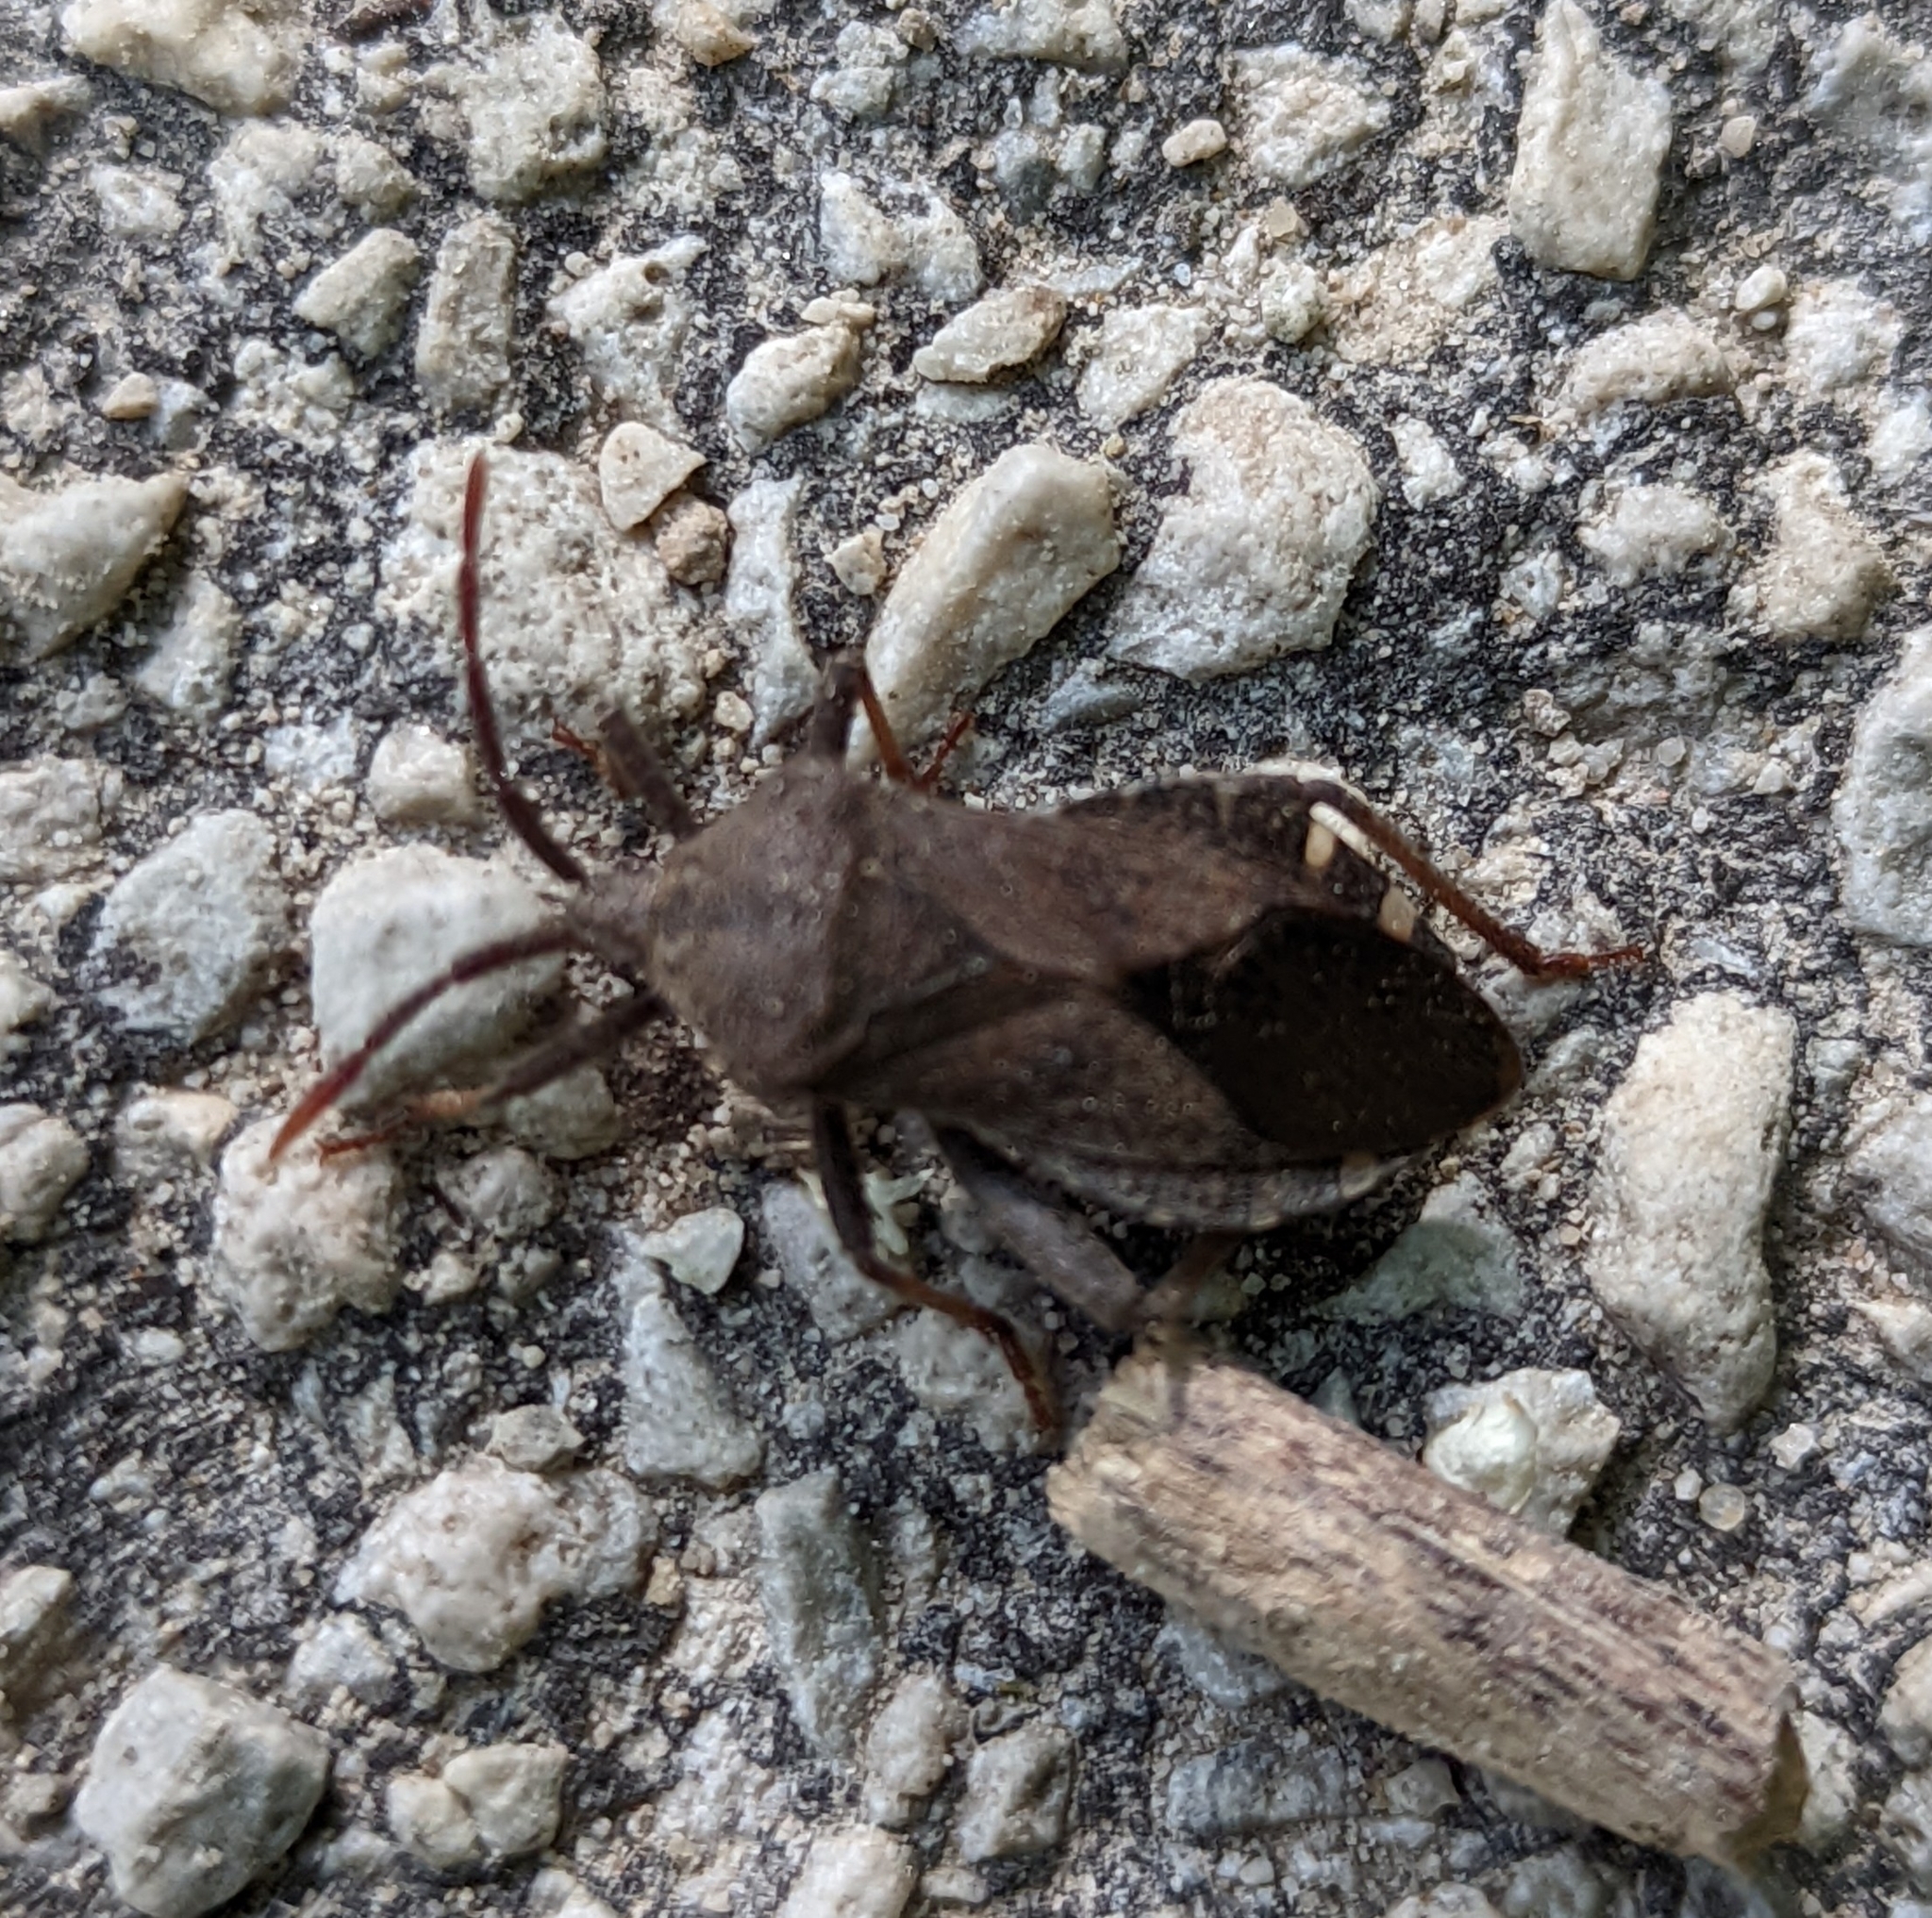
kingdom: Animalia
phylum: Arthropoda
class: Insecta
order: Hemiptera
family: Coreidae
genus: Piezogaster
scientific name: Piezogaster calcarator
